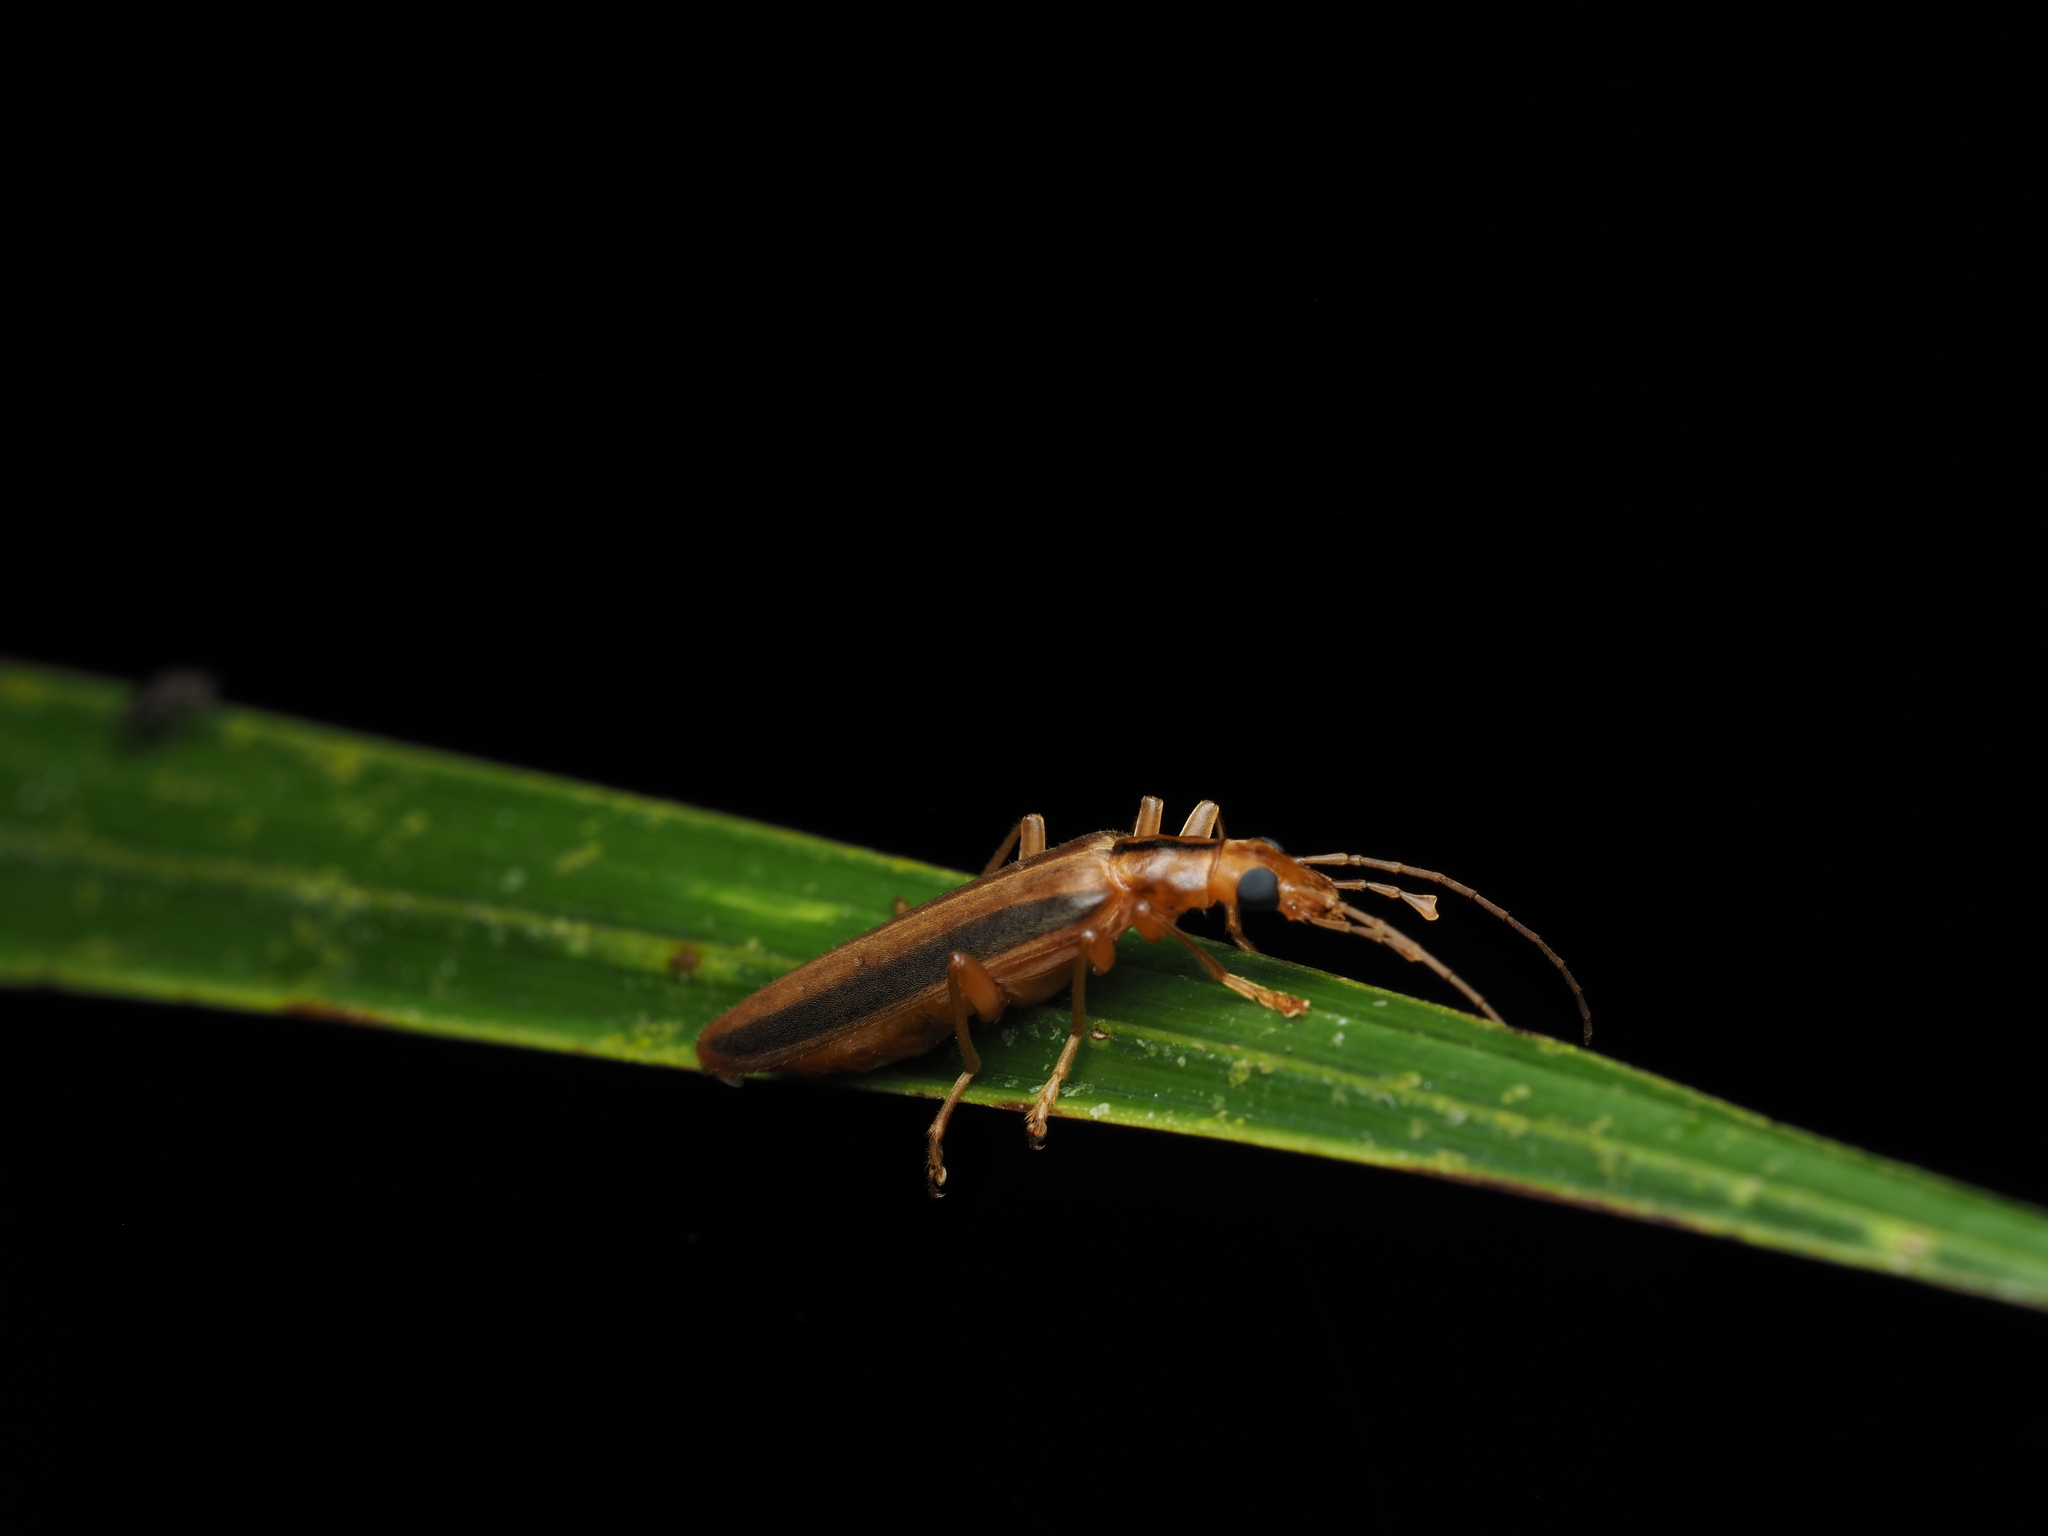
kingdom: Animalia
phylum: Arthropoda
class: Insecta
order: Coleoptera
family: Oedemeridae
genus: Thelyphassa
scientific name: Thelyphassa
